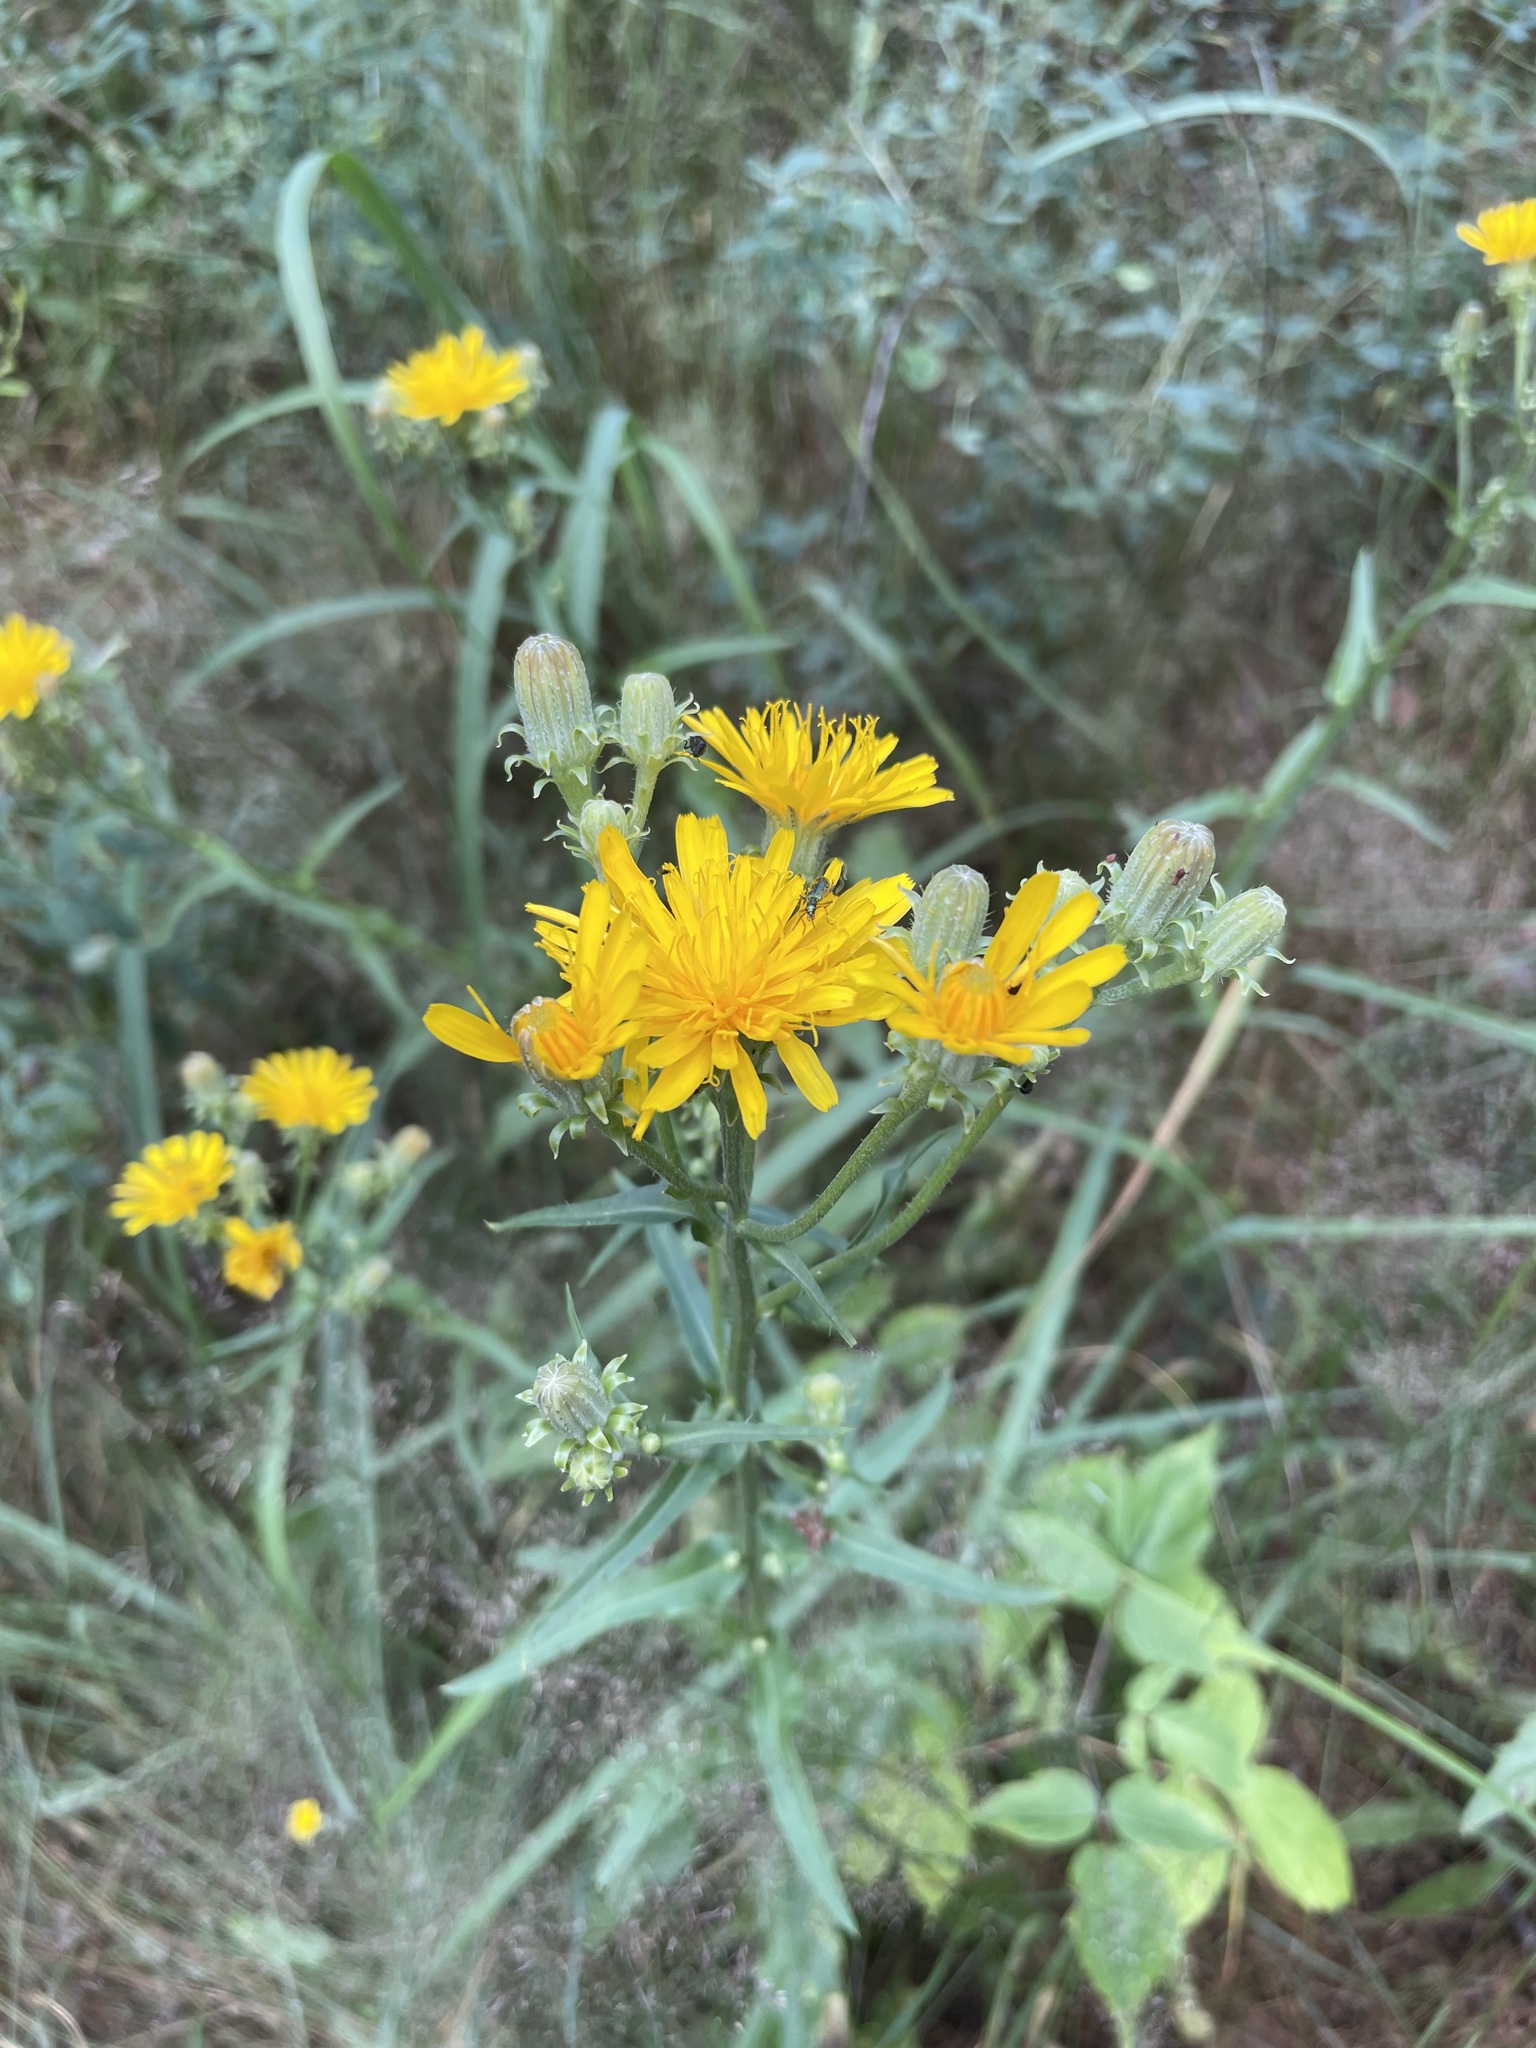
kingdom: Plantae
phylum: Tracheophyta
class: Magnoliopsida
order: Asterales
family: Asteraceae
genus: Picris
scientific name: Picris hieracioides
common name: Hawkweed oxtongue
